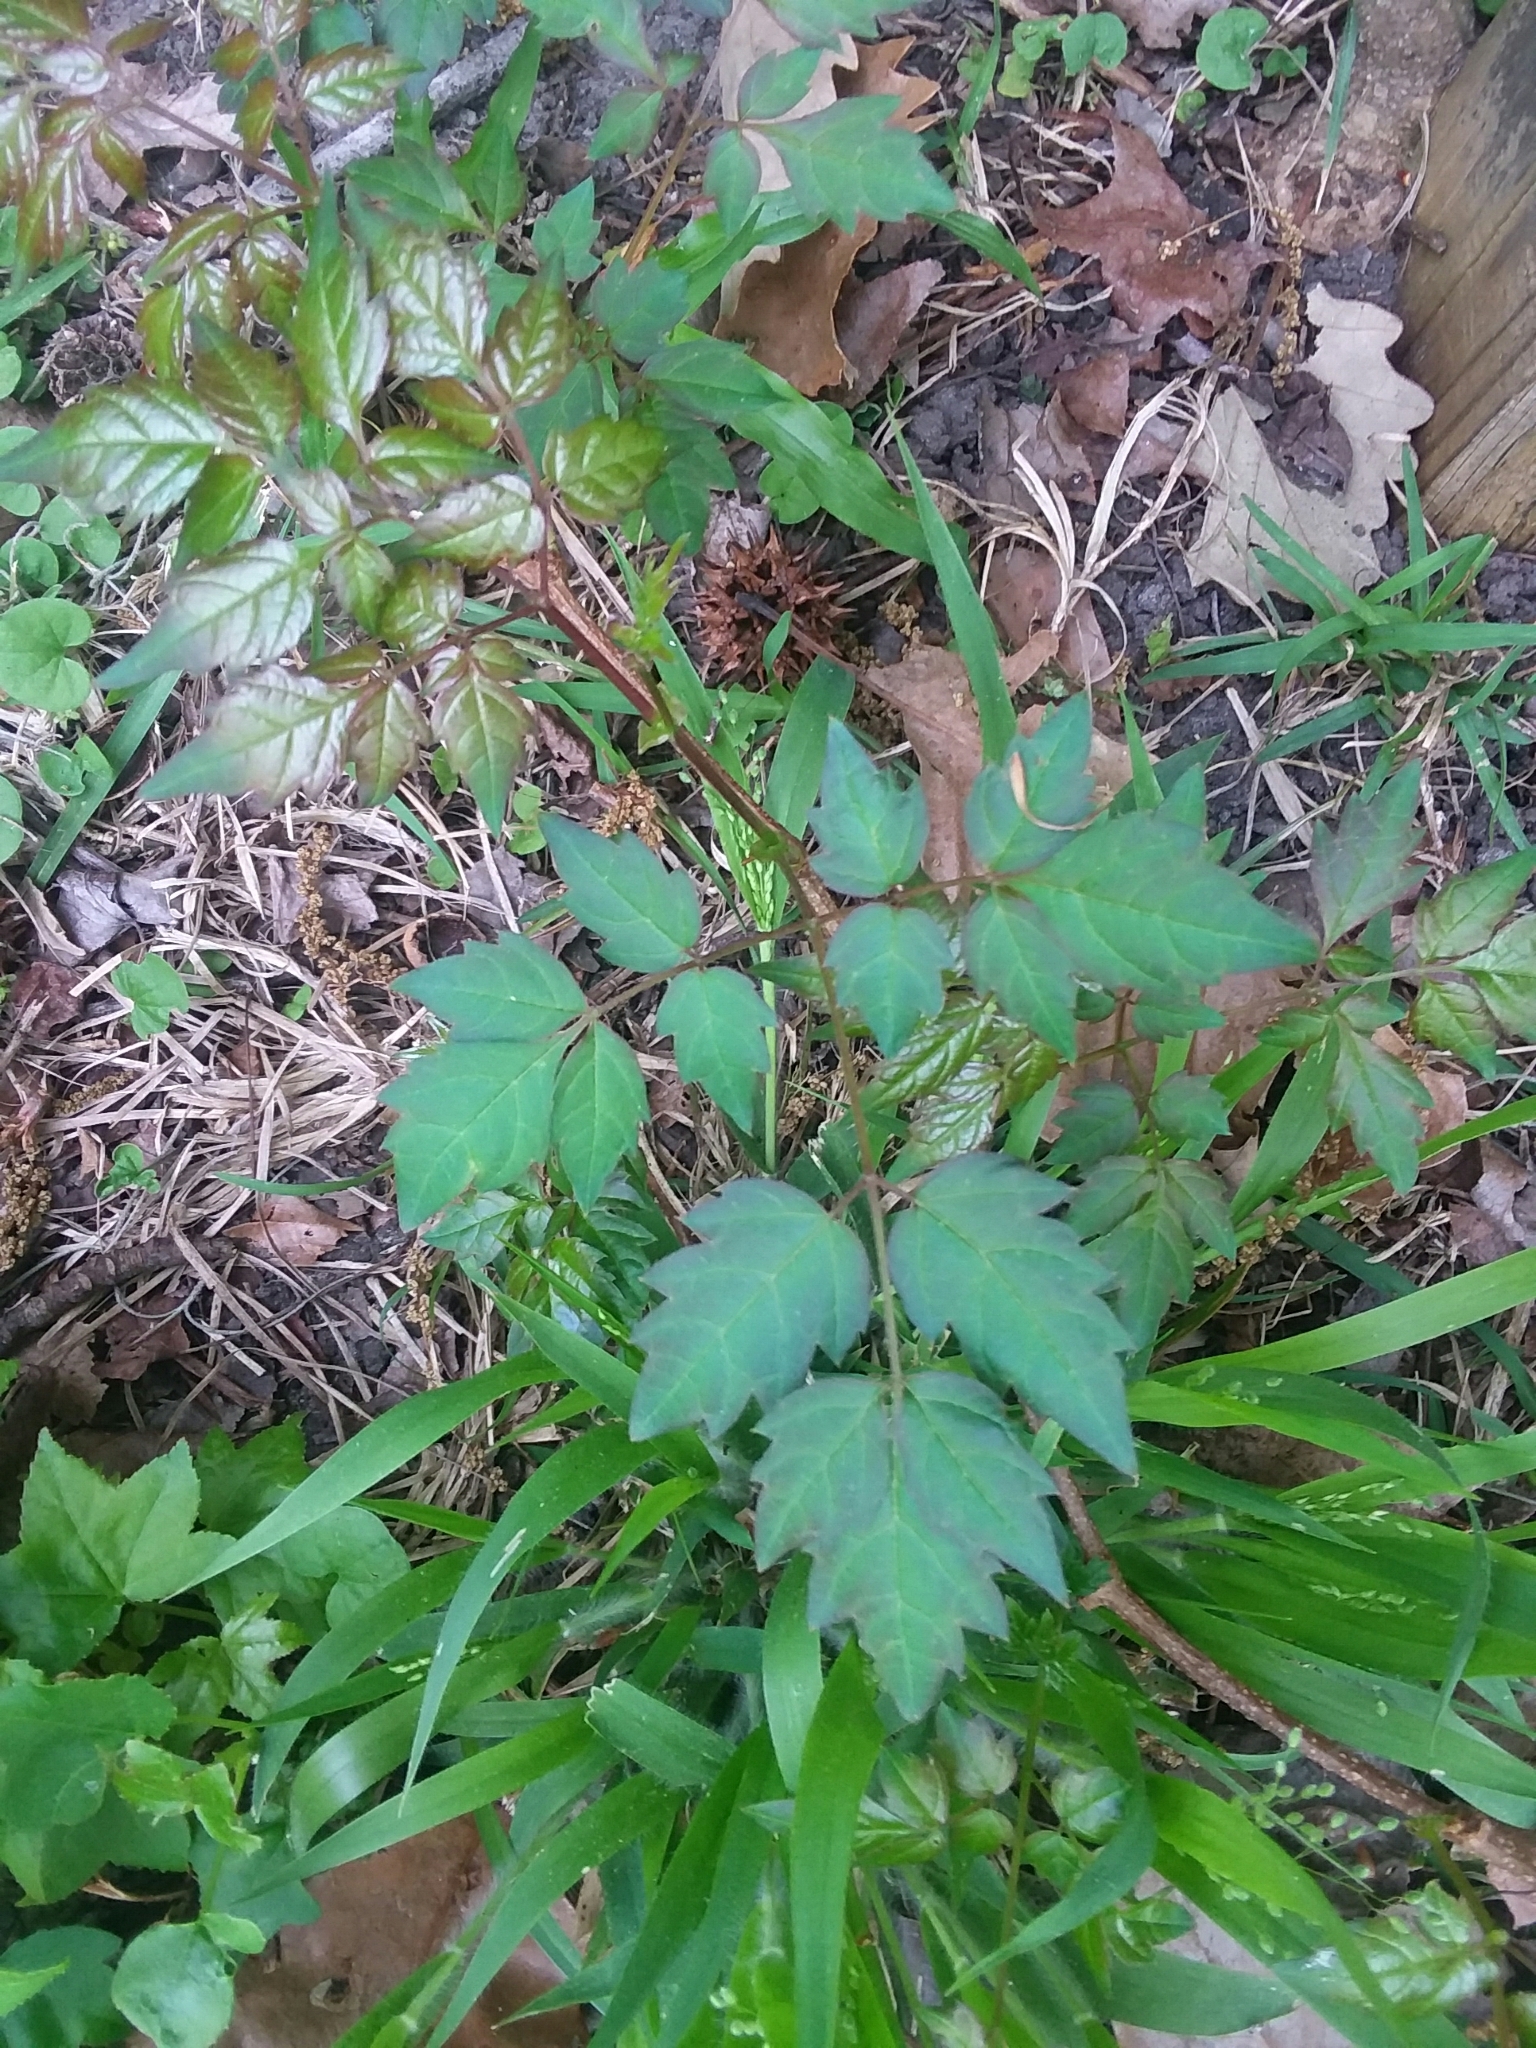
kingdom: Plantae
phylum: Tracheophyta
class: Magnoliopsida
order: Vitales
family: Vitaceae
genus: Nekemias
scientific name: Nekemias arborea
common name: Peppervine
